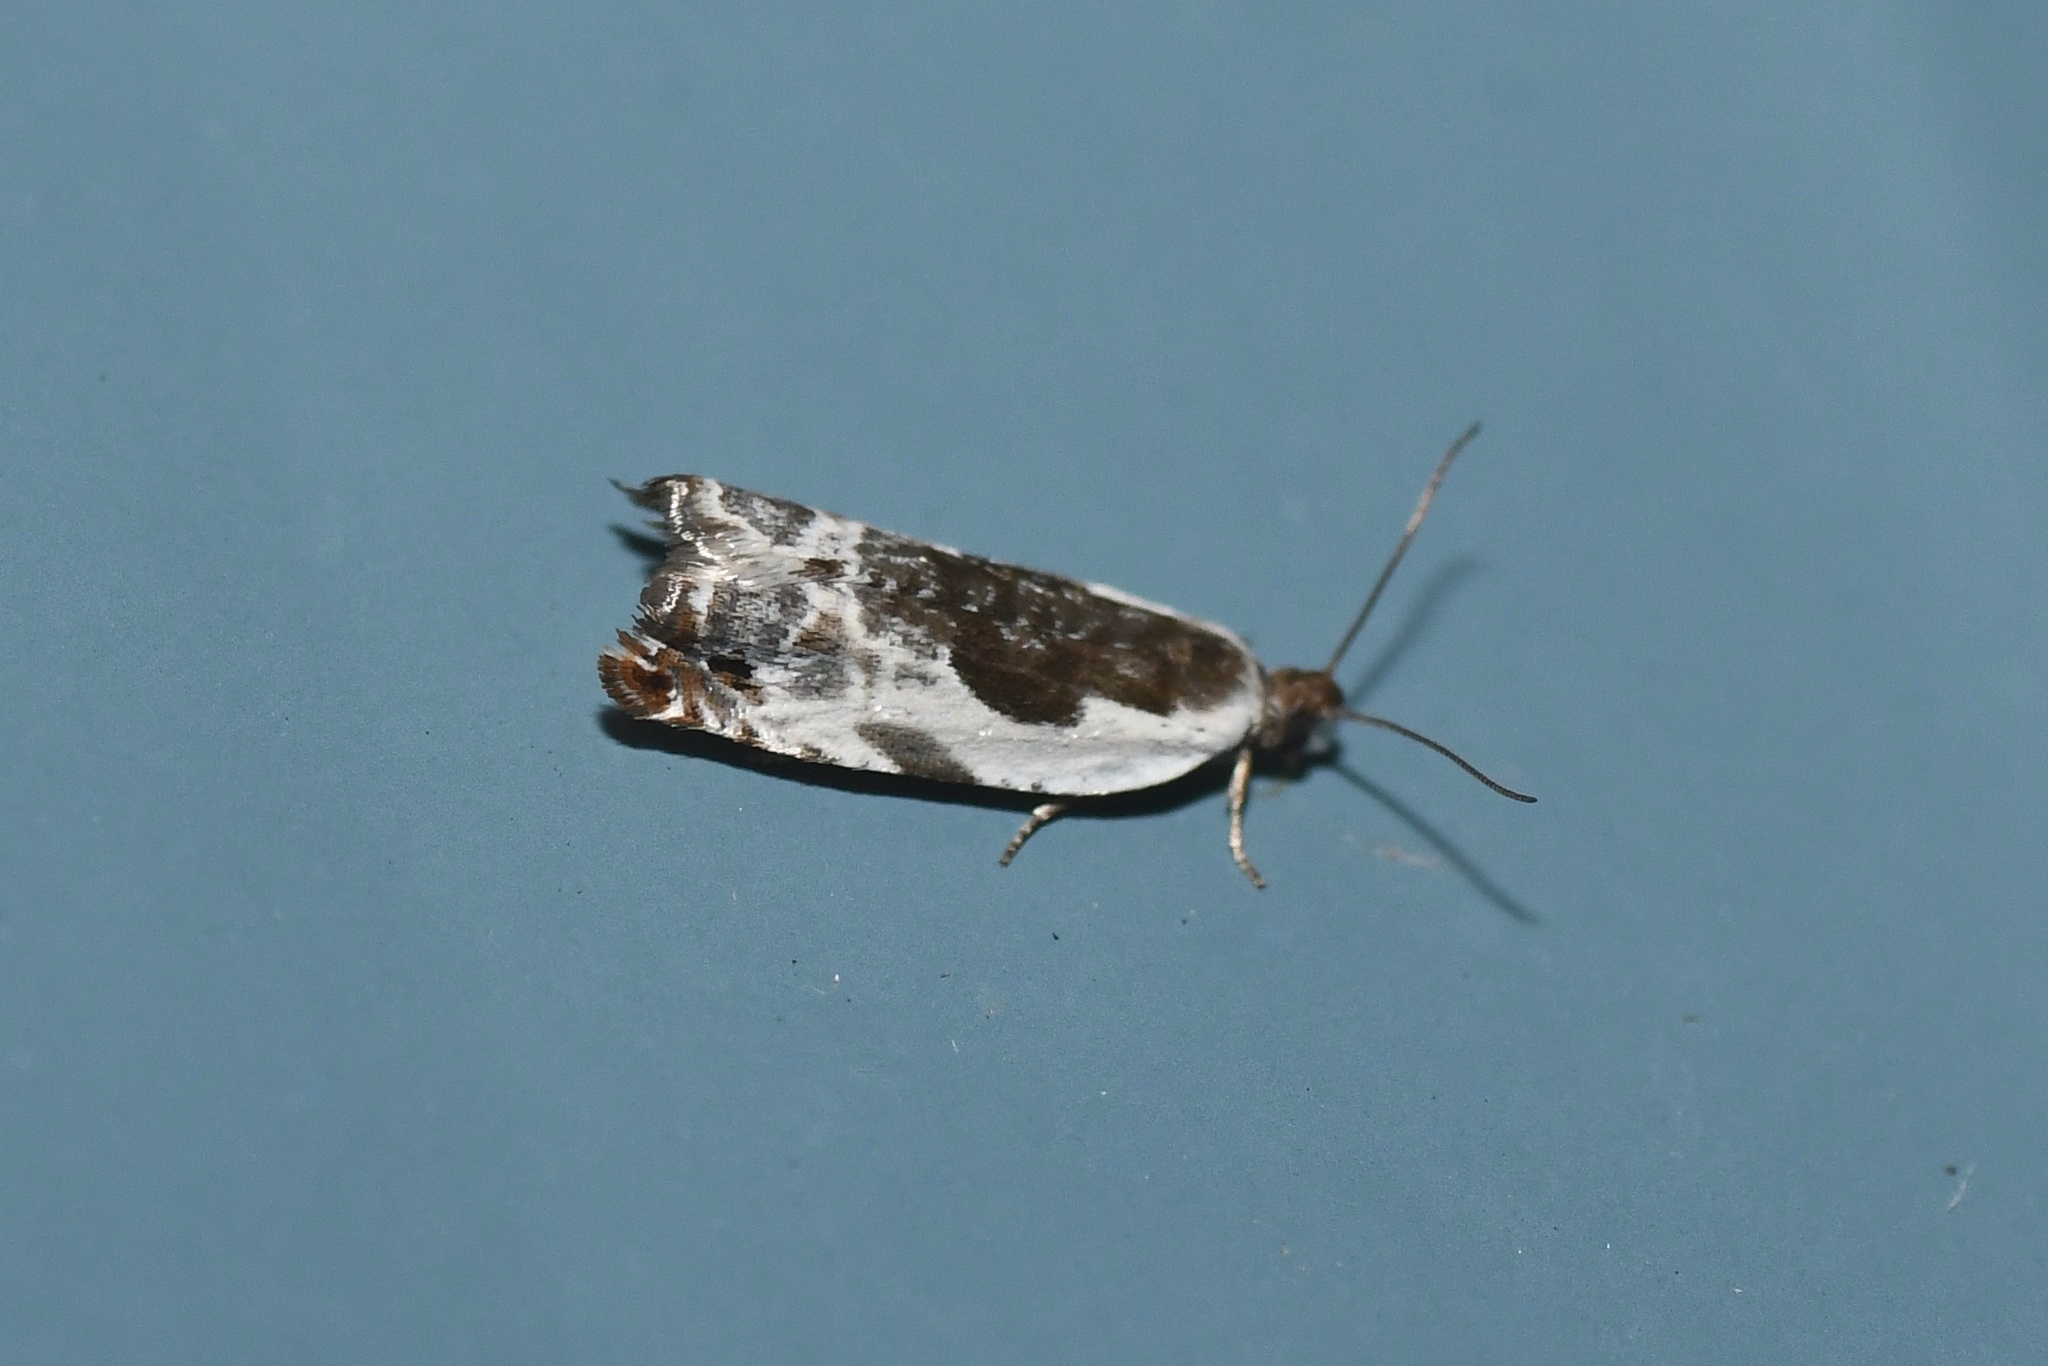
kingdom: Animalia
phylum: Arthropoda
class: Insecta
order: Lepidoptera
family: Tortricidae
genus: Ancylis
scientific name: Ancylis nubeculana
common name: Little cloud ancylis moth
